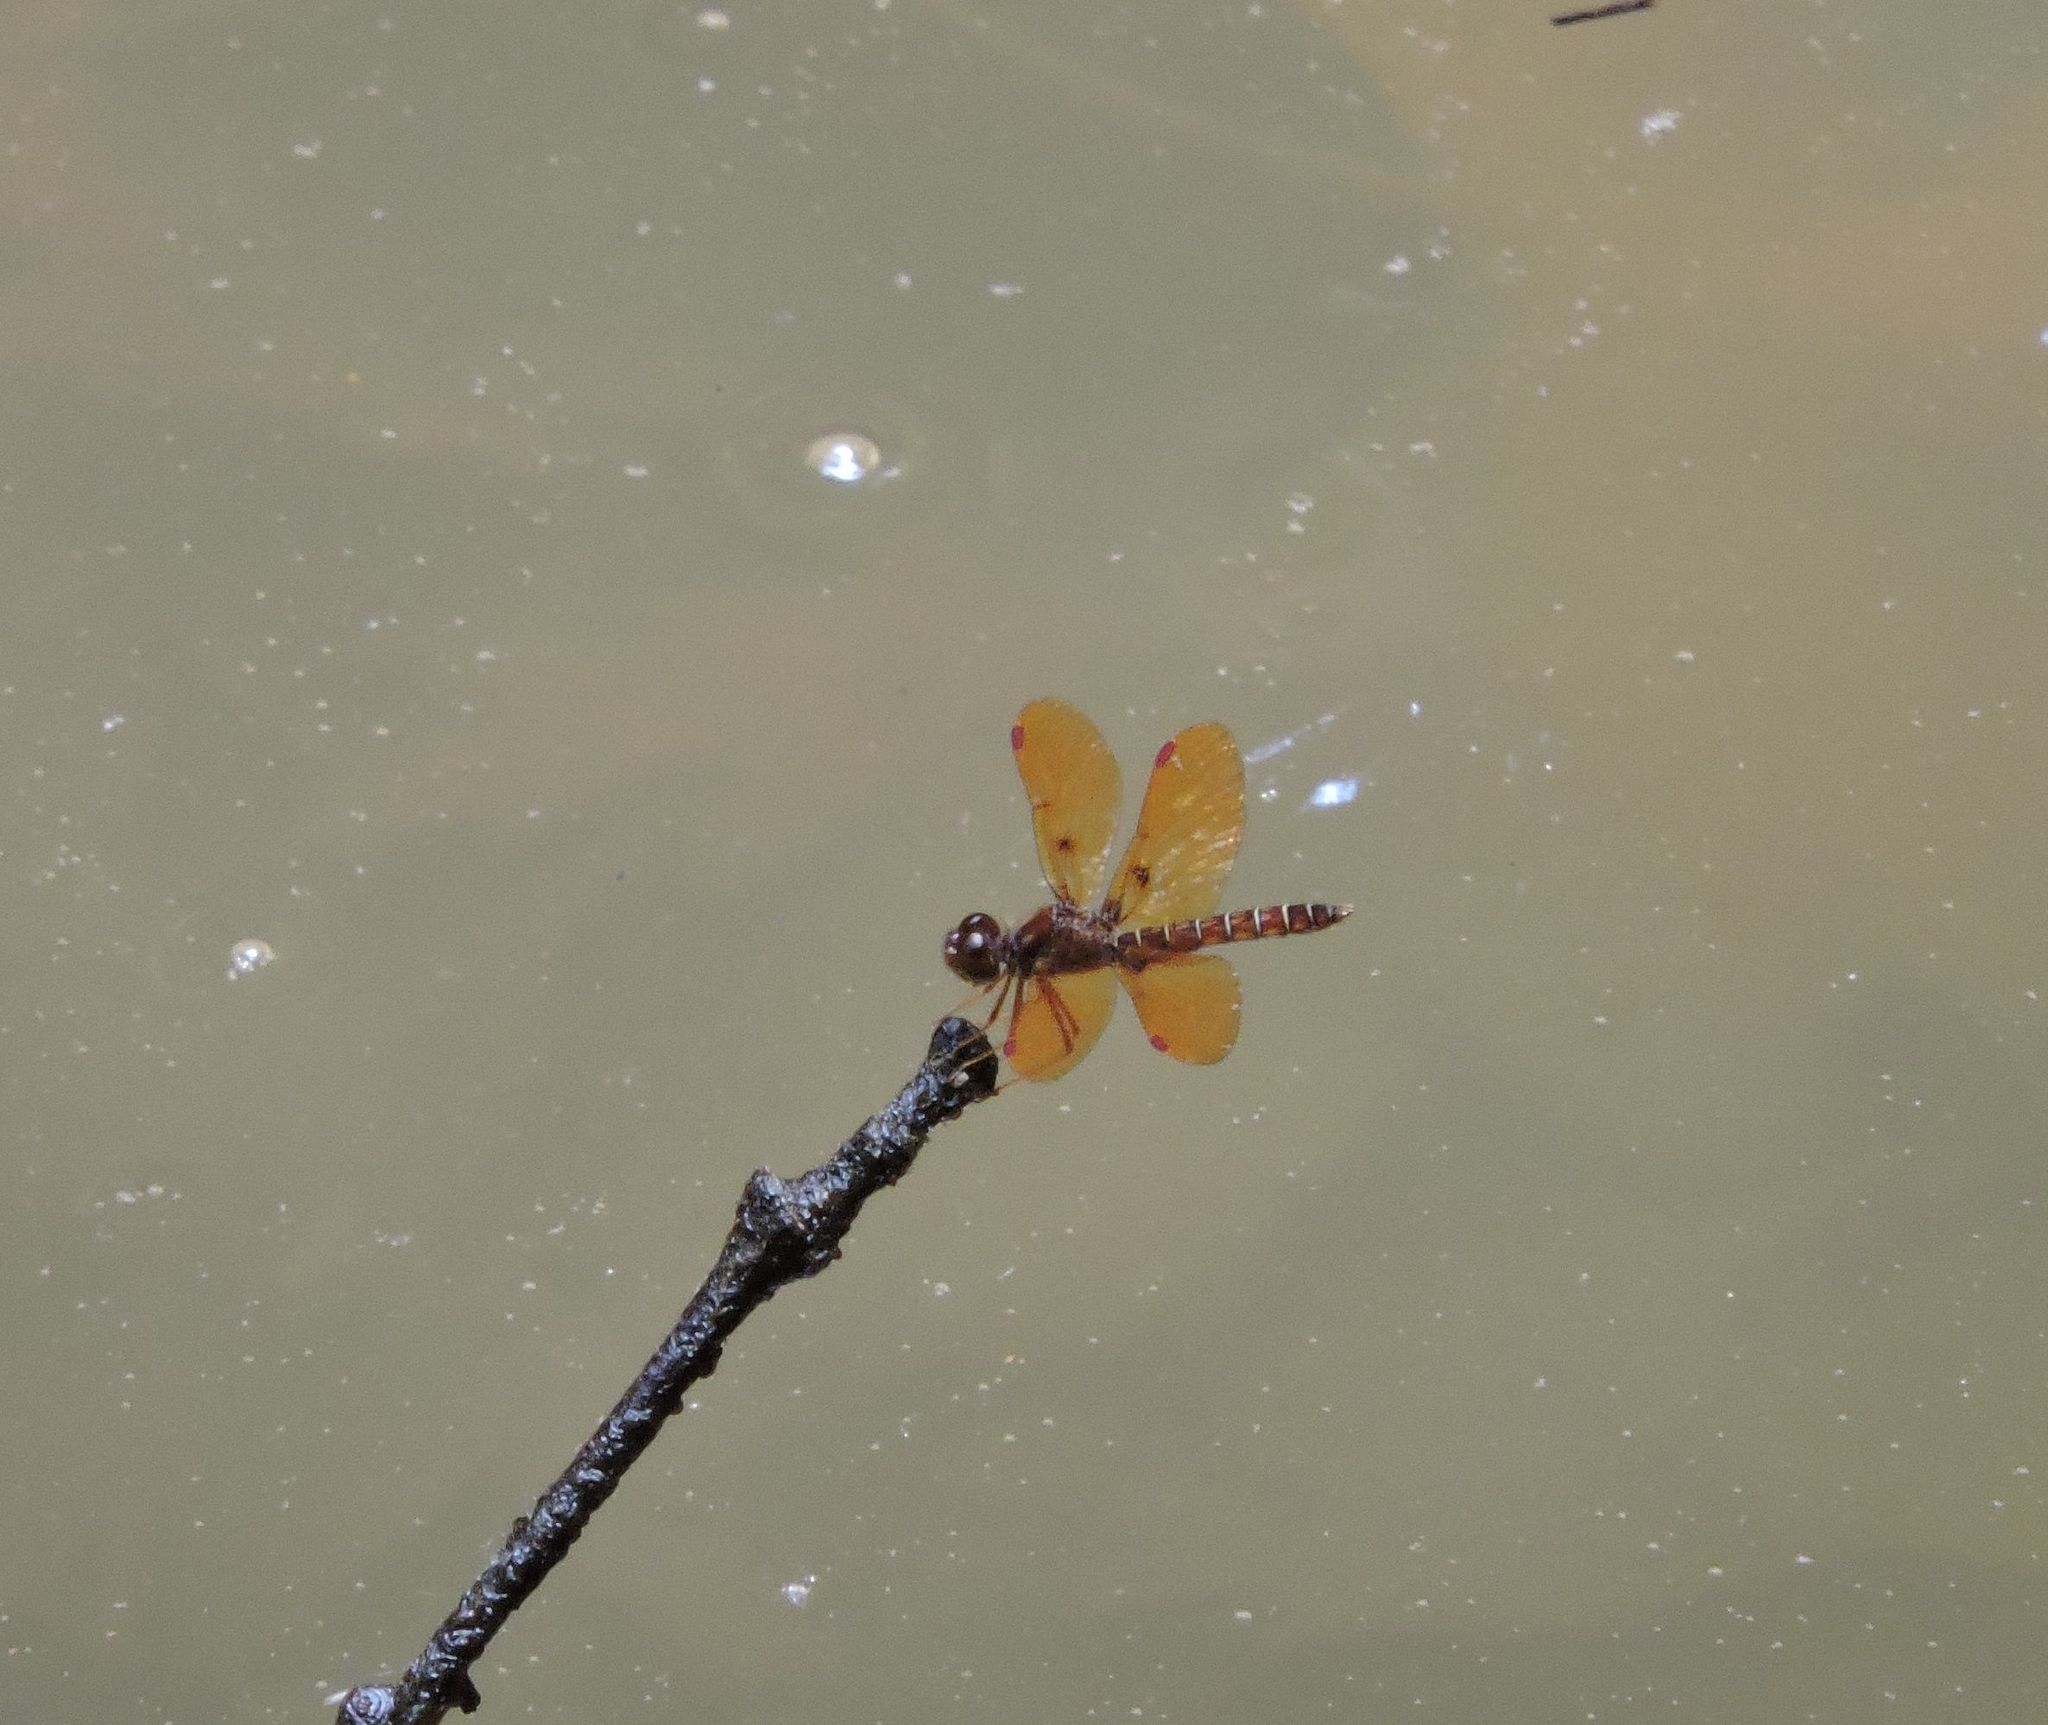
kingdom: Animalia
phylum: Arthropoda
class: Insecta
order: Odonata
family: Libellulidae
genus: Perithemis
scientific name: Perithemis tenera
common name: Eastern amberwing
